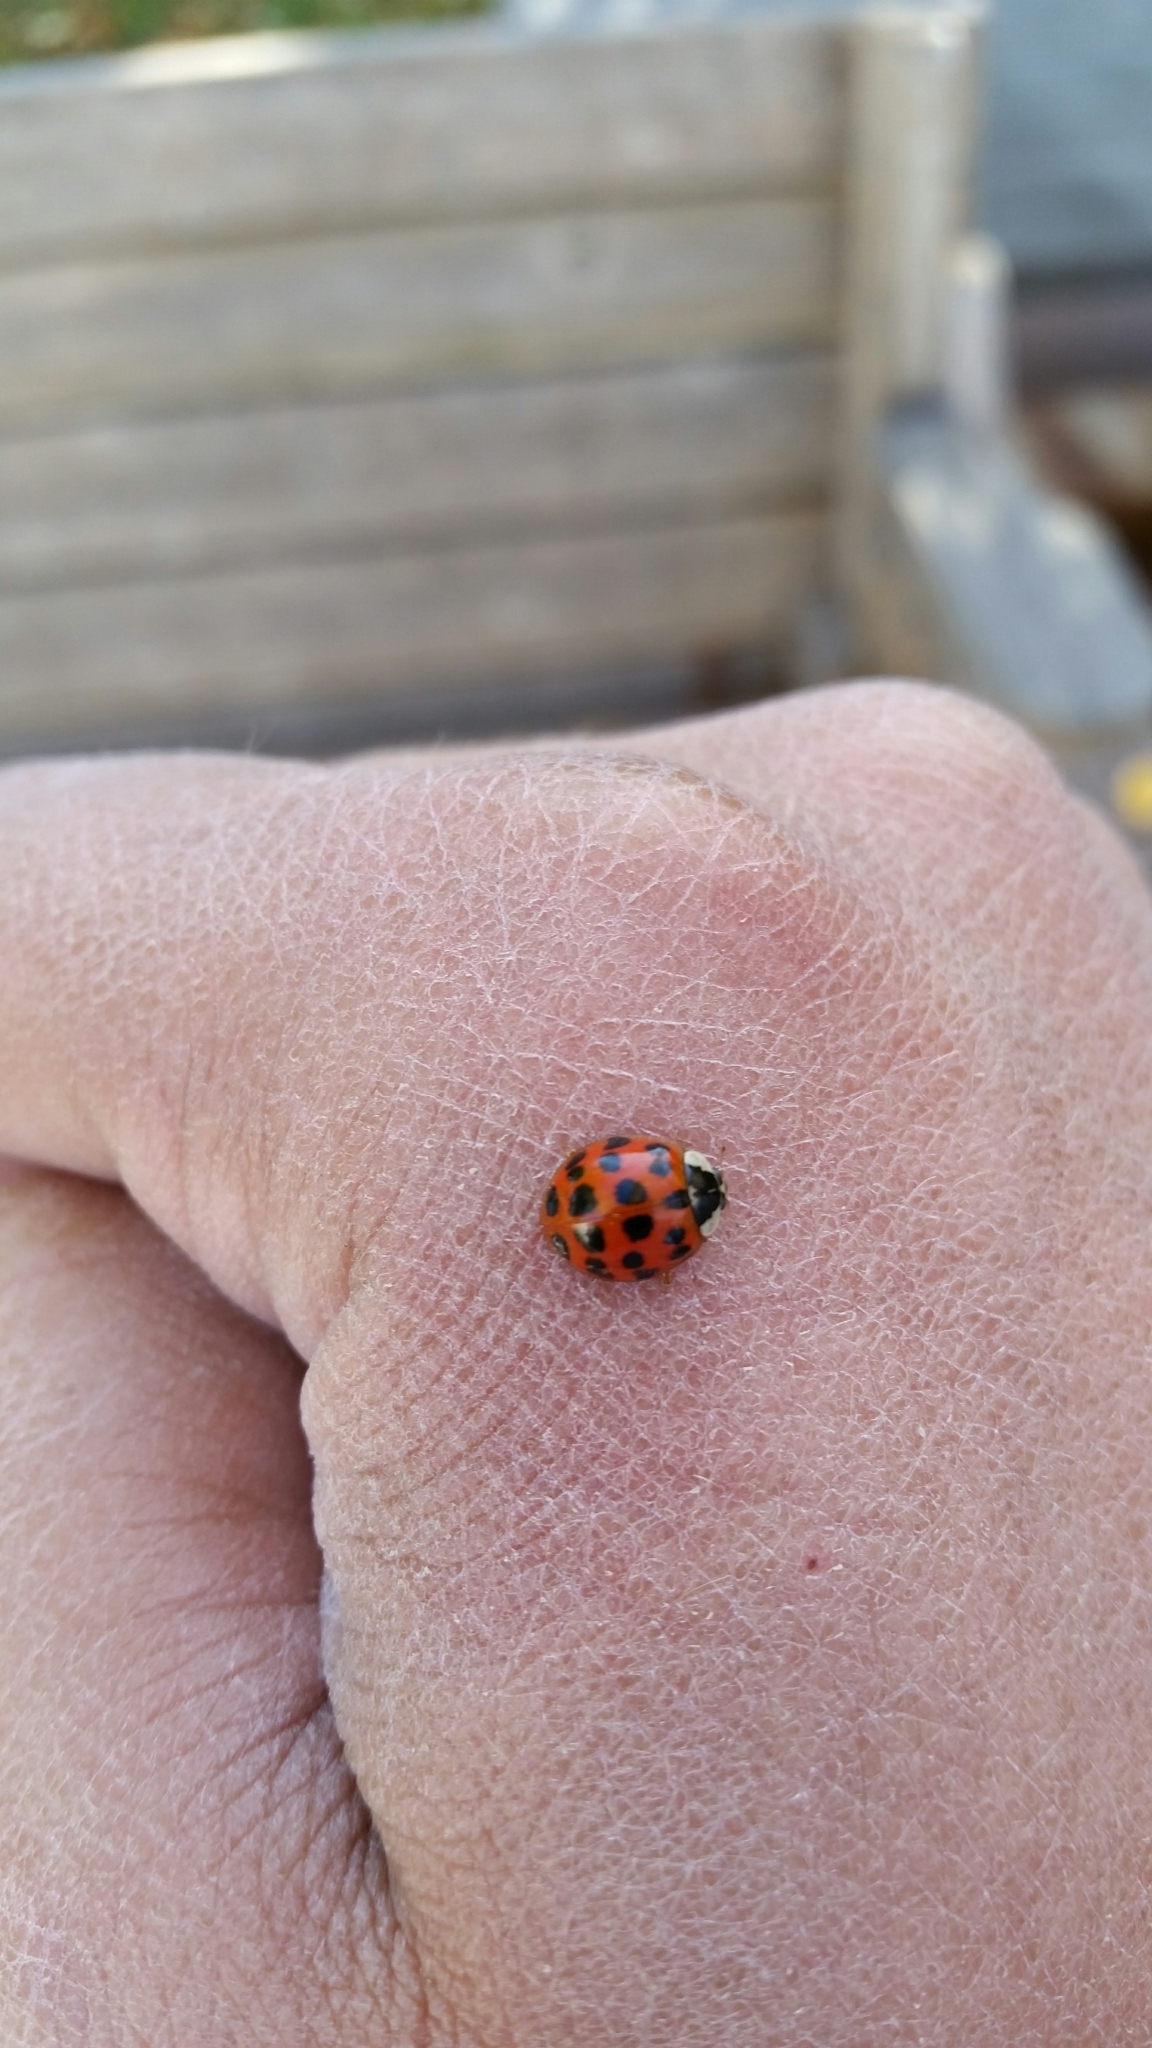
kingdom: Animalia
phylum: Arthropoda
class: Insecta
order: Coleoptera
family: Coccinellidae
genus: Harmonia
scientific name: Harmonia axyridis
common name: Harlequin ladybird
